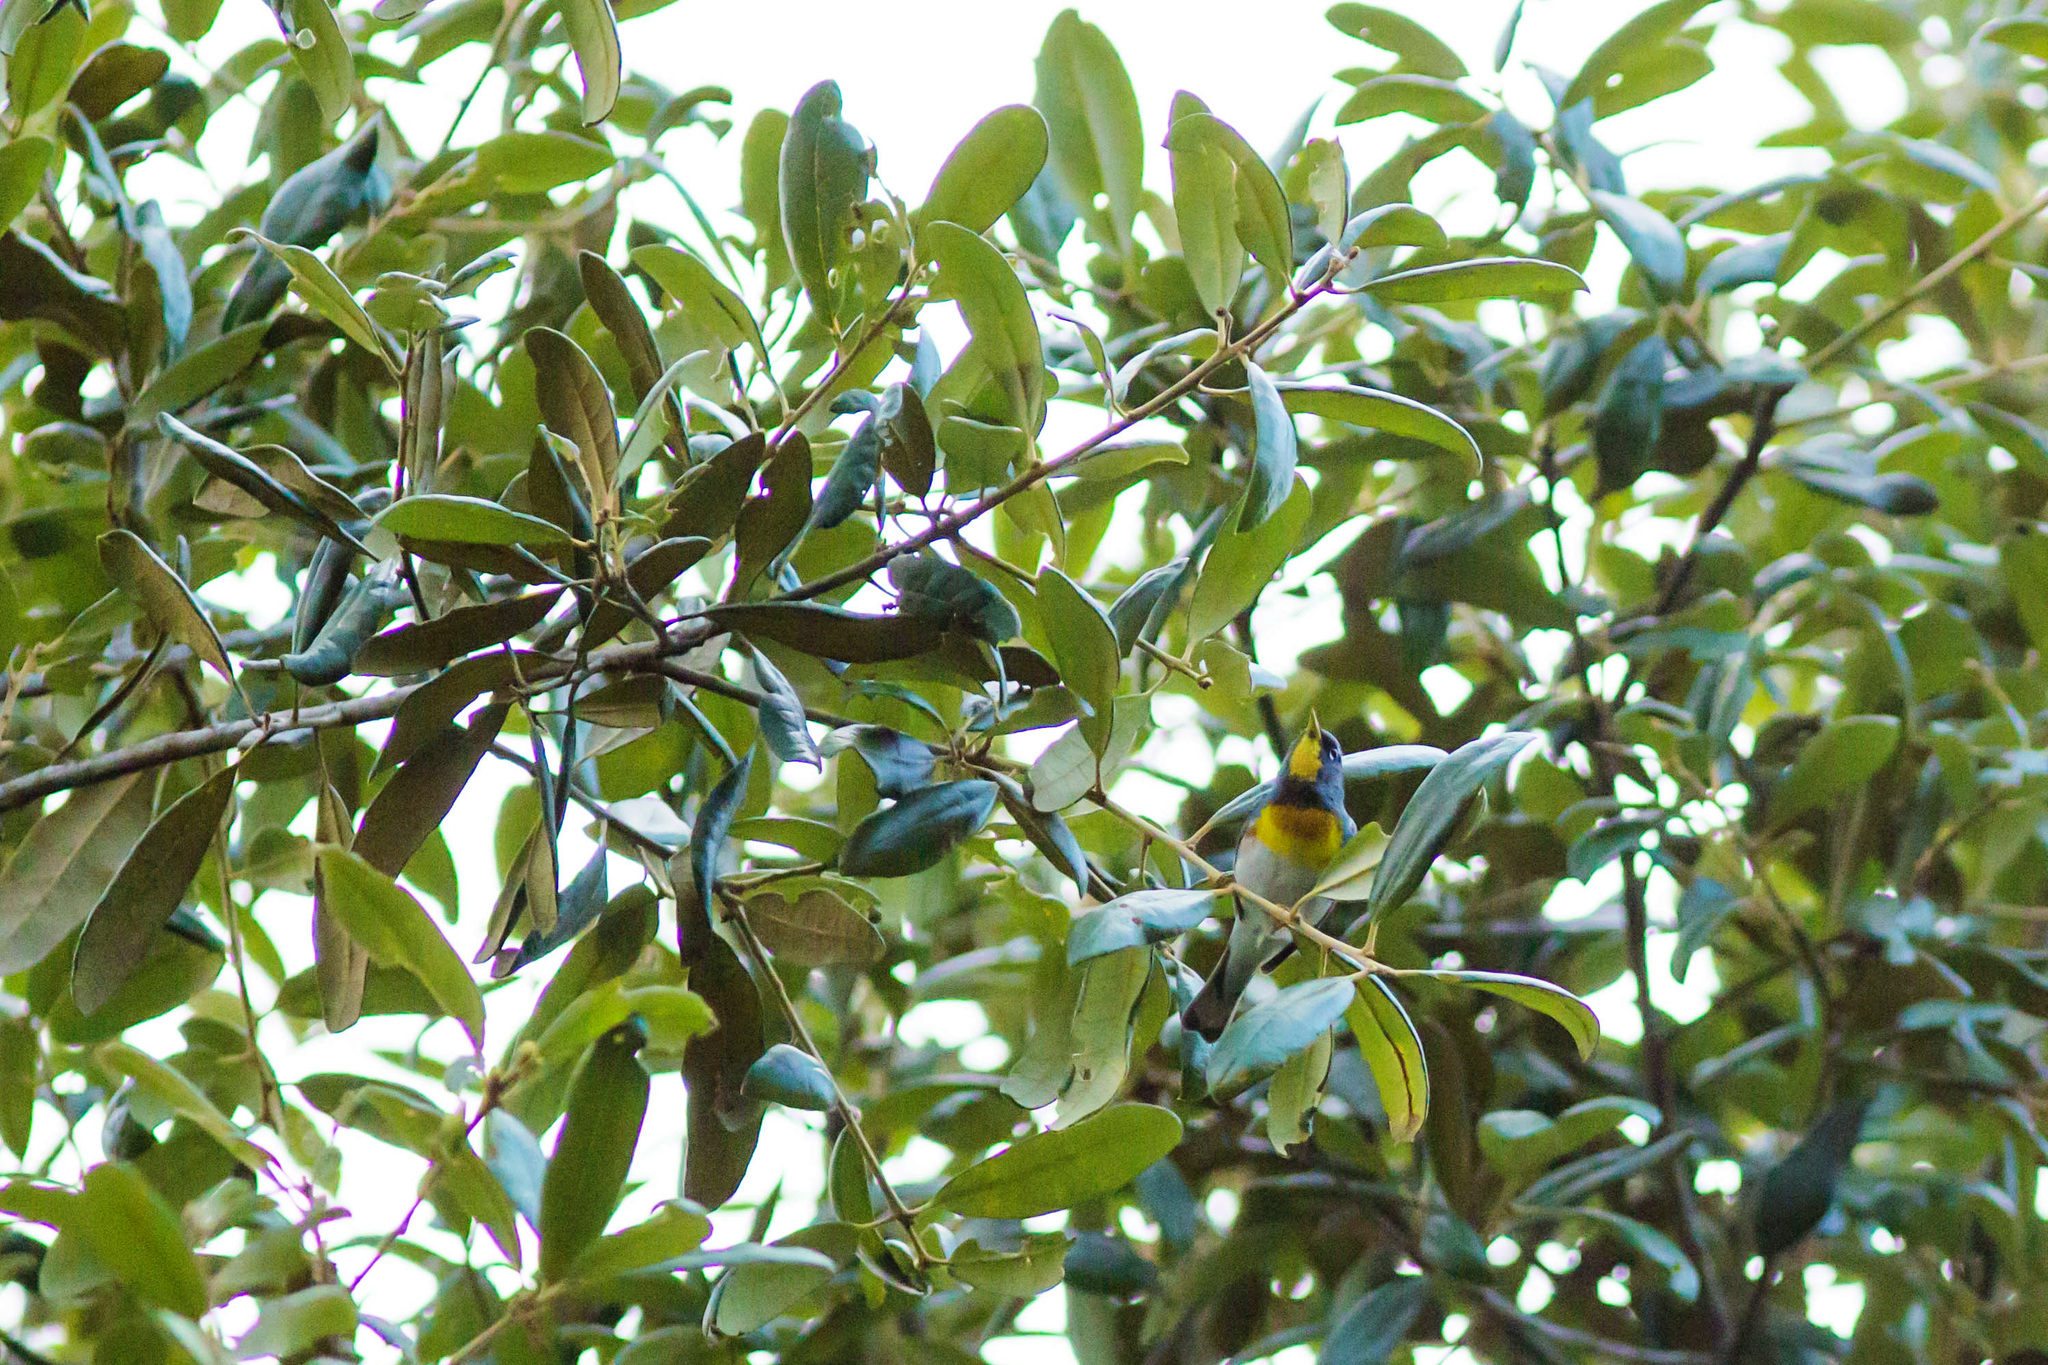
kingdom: Animalia
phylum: Chordata
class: Aves
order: Passeriformes
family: Parulidae
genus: Setophaga
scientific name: Setophaga americana
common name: Northern parula
